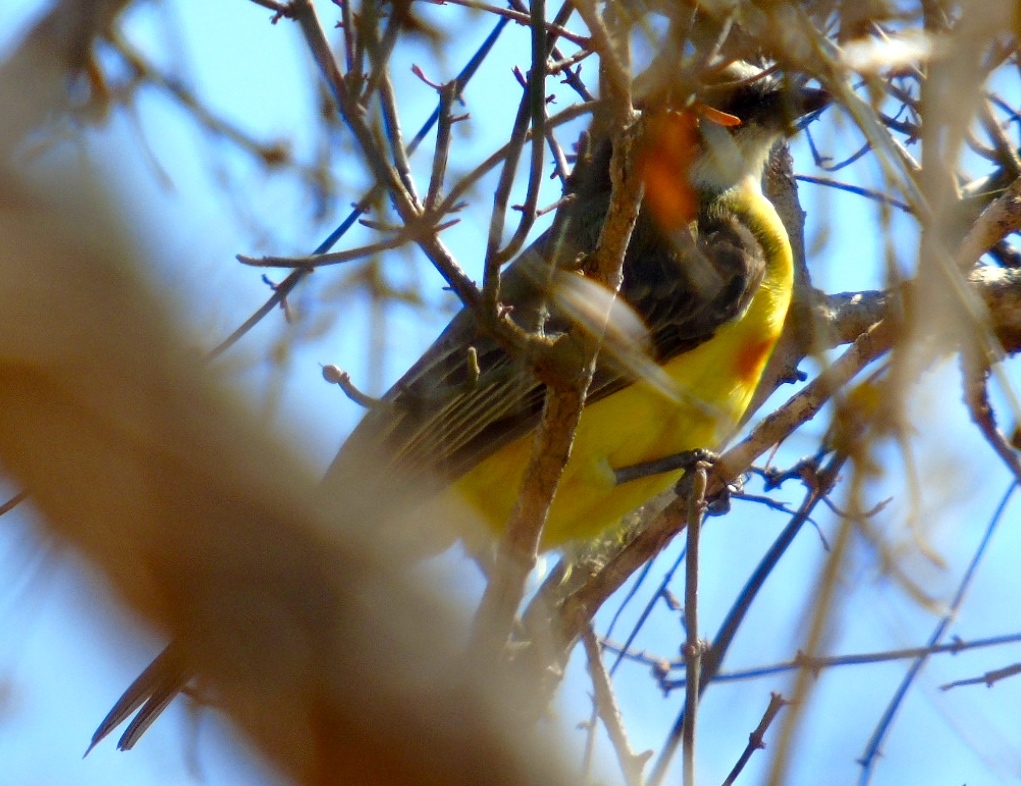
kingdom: Animalia
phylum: Chordata
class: Aves
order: Passeriformes
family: Tyrannidae
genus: Myiozetetes
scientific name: Myiozetetes similis
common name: Social flycatcher
